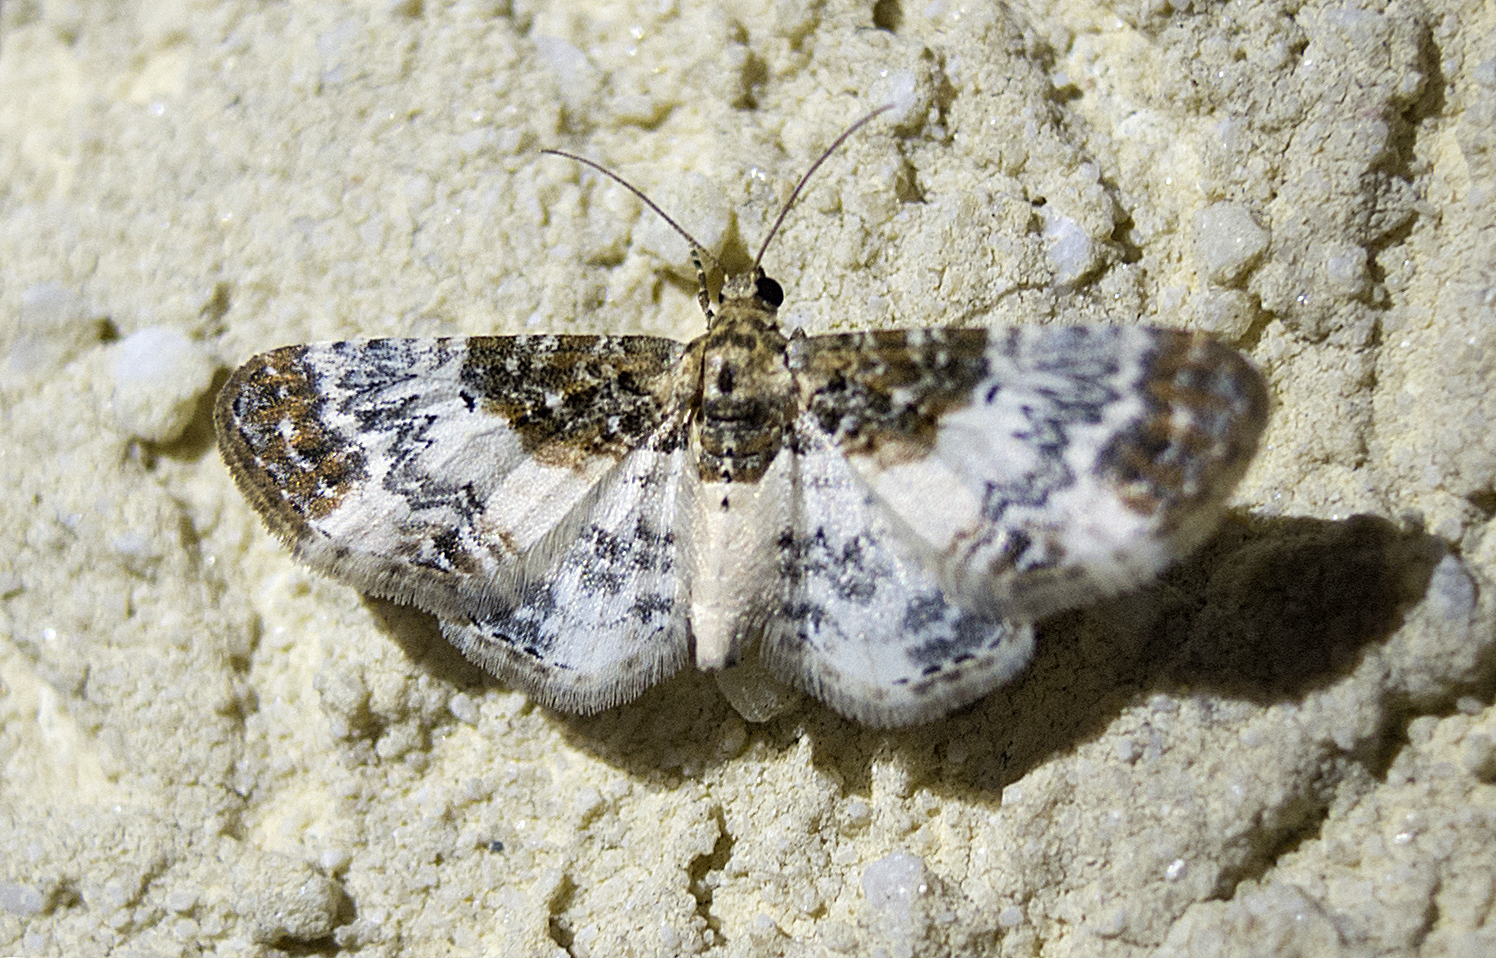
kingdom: Animalia
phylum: Arthropoda
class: Insecta
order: Lepidoptera
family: Geometridae
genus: Eupithecia
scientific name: Eupithecia breviculata
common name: Rusty-shouldered pug
